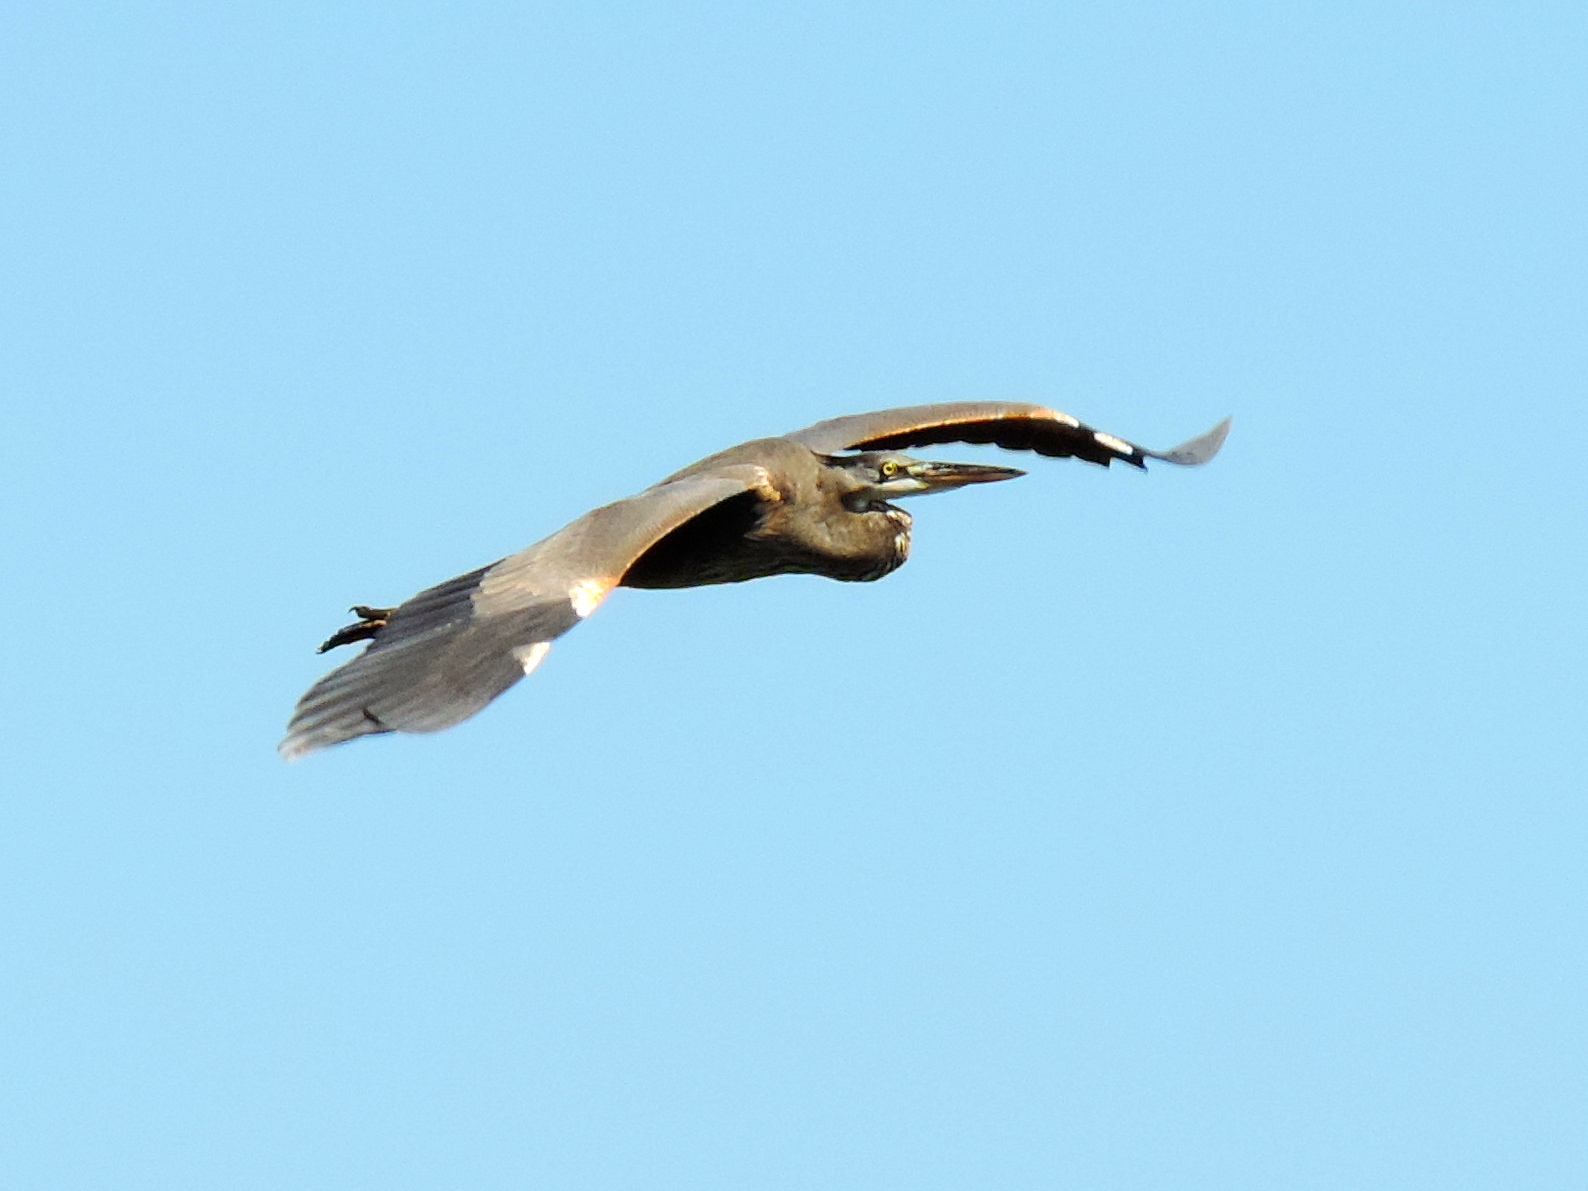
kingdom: Animalia
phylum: Chordata
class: Aves
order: Pelecaniformes
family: Ardeidae
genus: Ardea
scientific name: Ardea herodias
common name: Great blue heron
